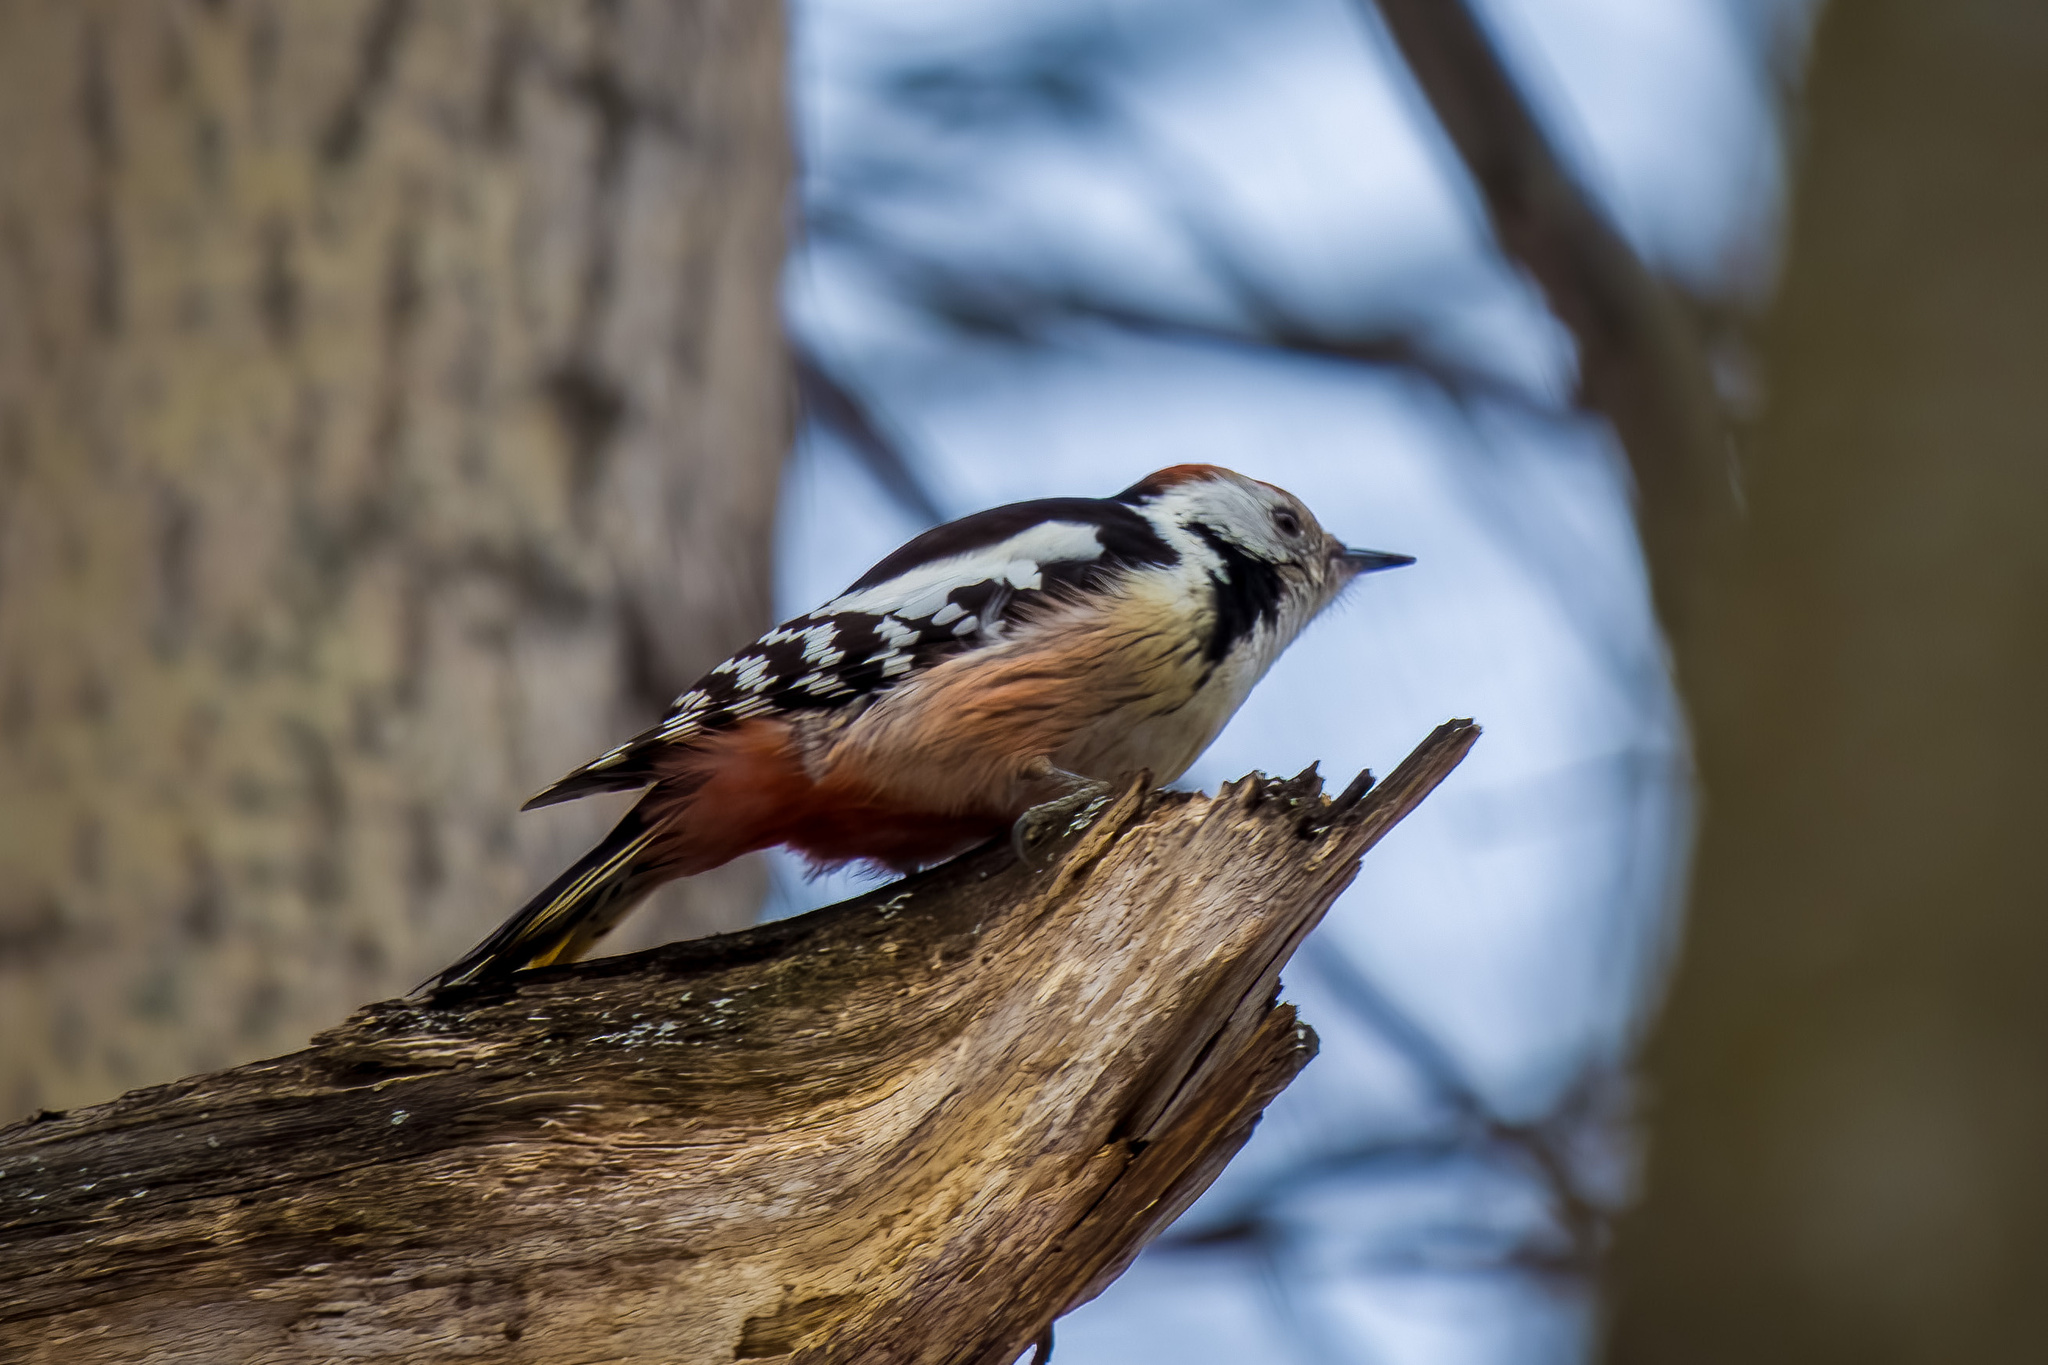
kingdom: Animalia
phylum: Chordata
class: Aves
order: Piciformes
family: Picidae
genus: Dendrocoptes
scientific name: Dendrocoptes medius
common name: Middle spotted woodpecker
